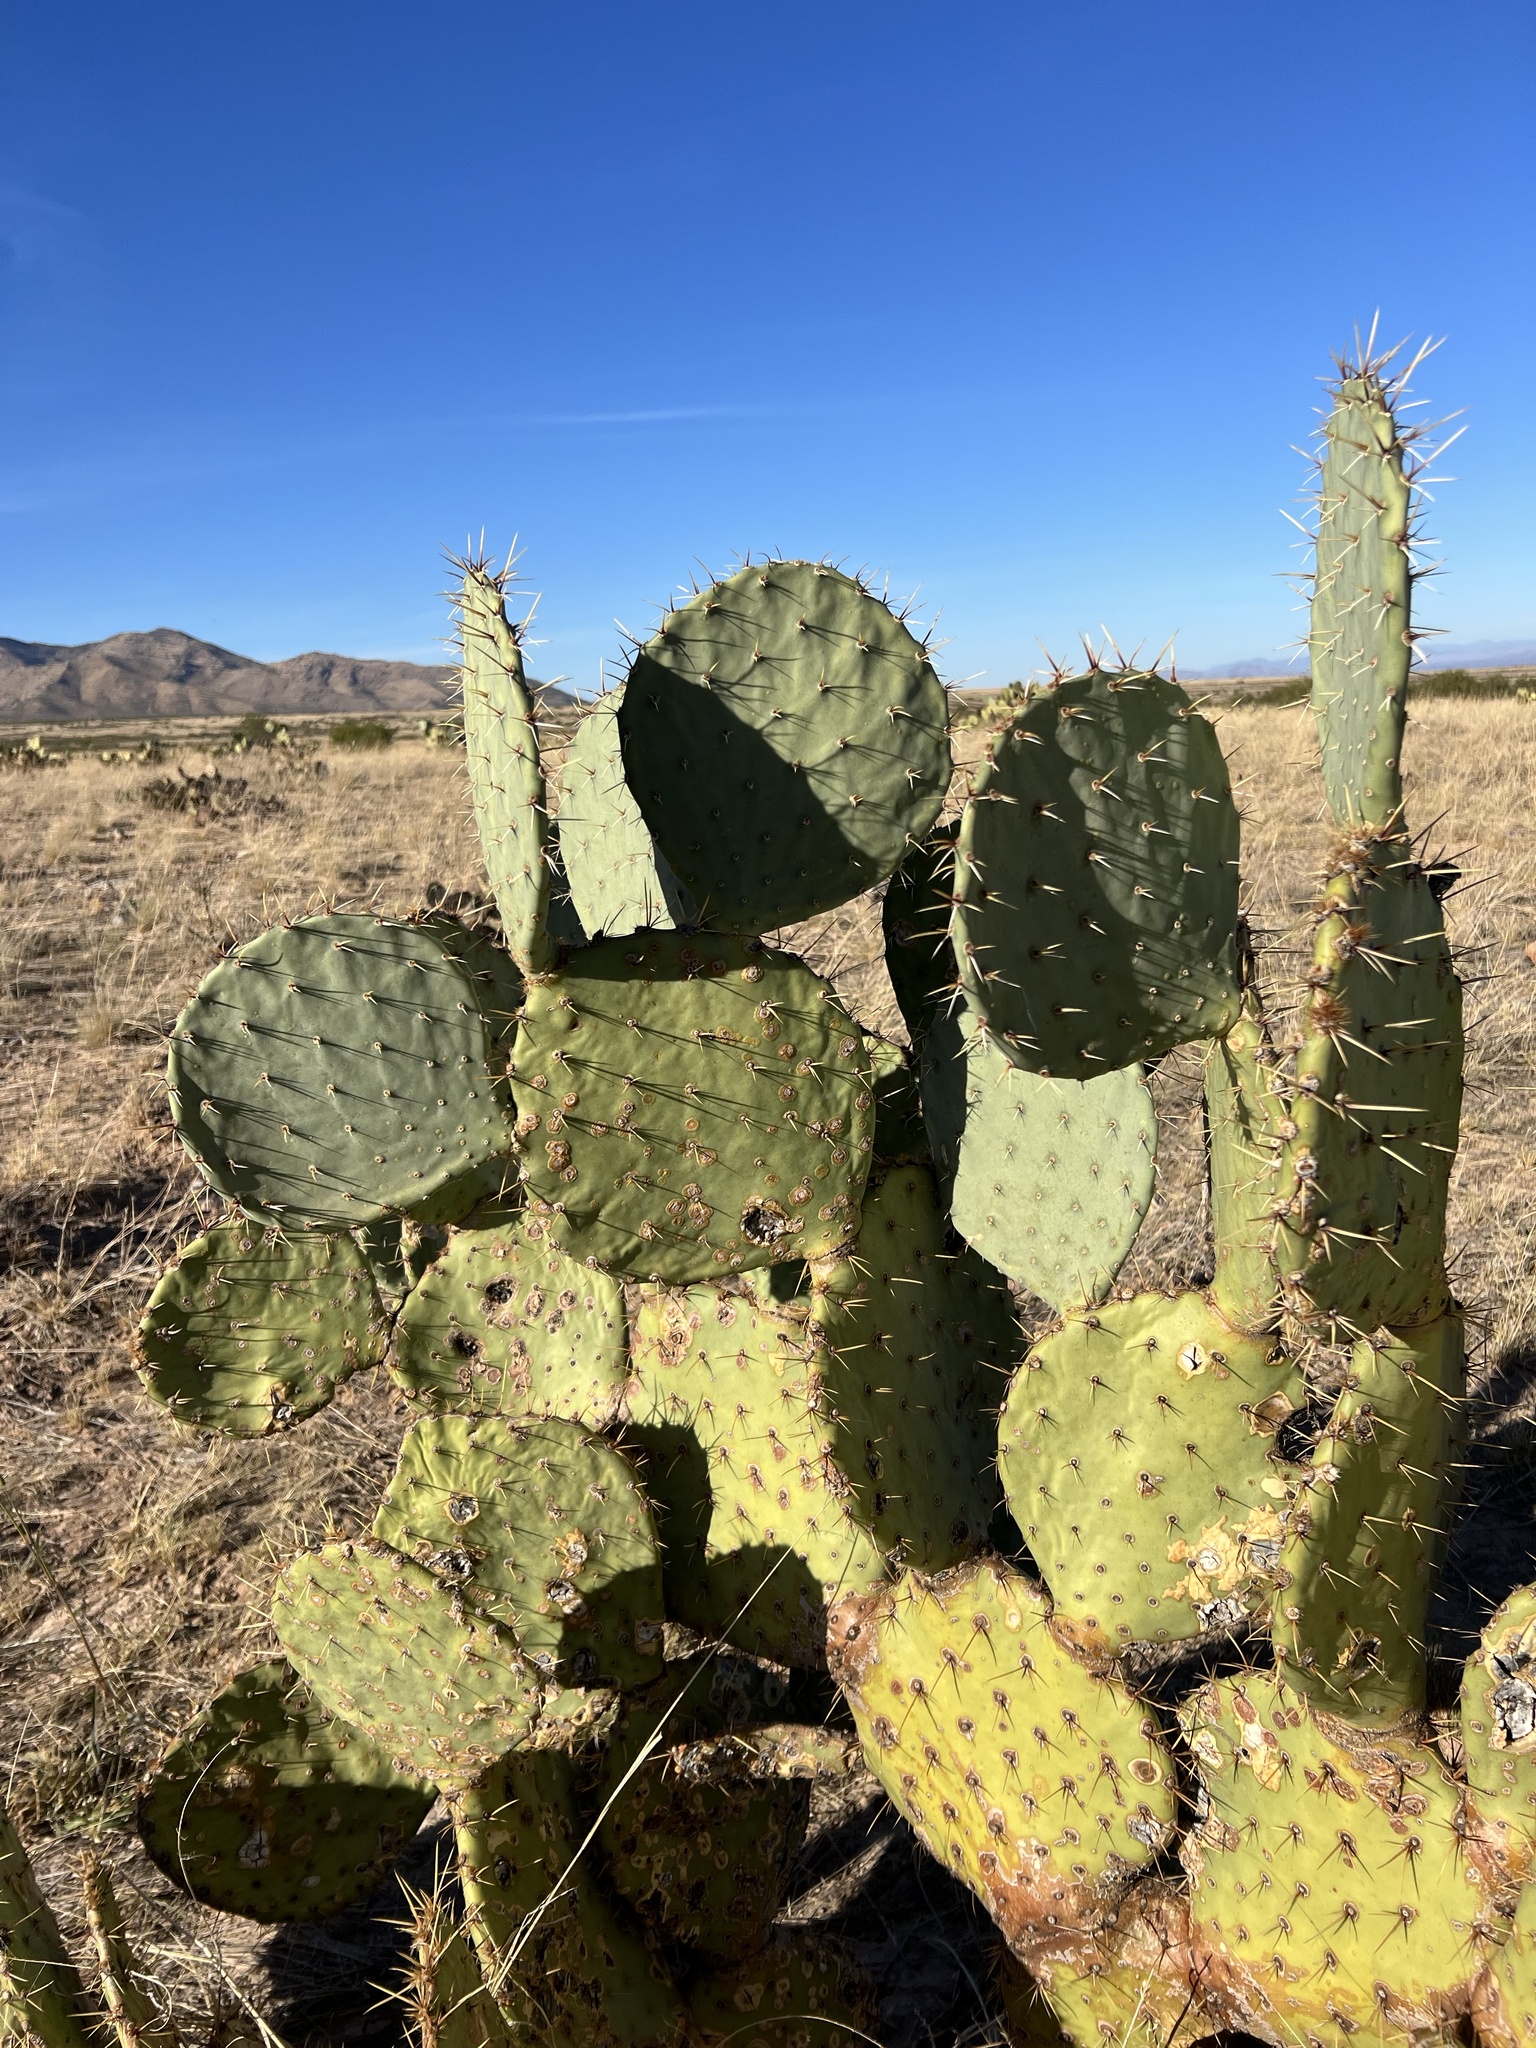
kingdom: Plantae
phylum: Tracheophyta
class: Magnoliopsida
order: Caryophyllales
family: Cactaceae
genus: Opuntia
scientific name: Opuntia engelmannii
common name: Cactus-apple
